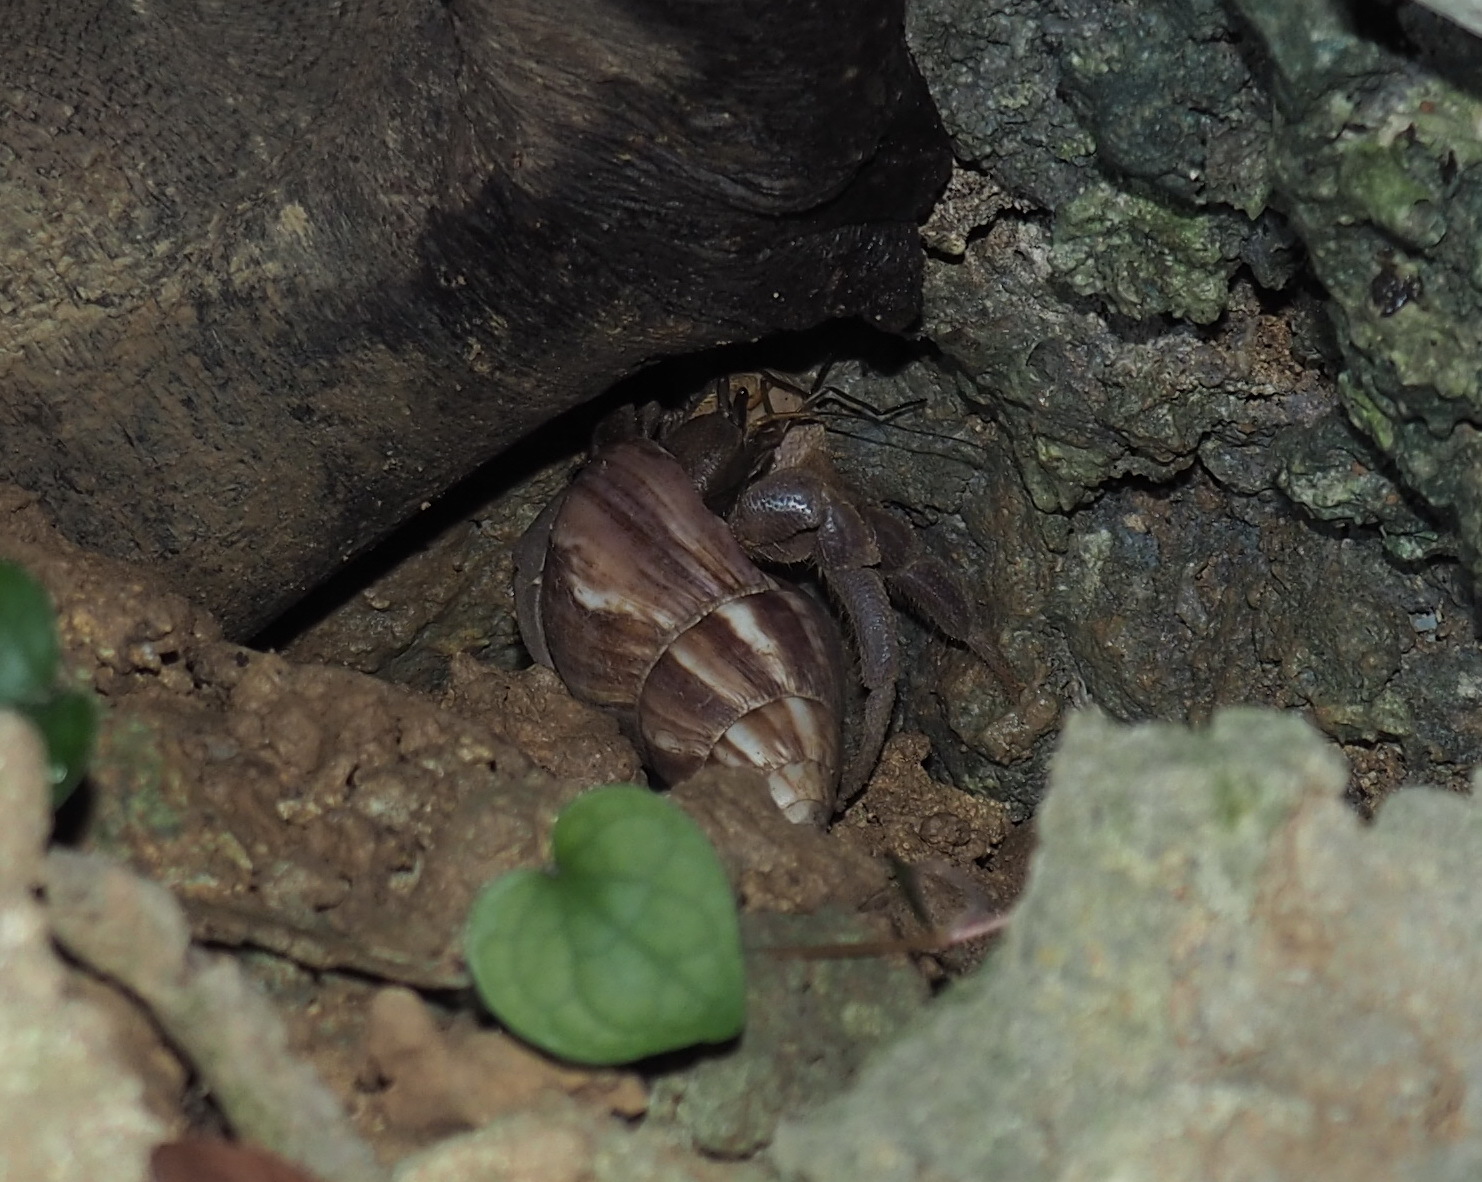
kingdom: Animalia
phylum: Arthropoda
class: Malacostraca
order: Decapoda
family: Coenobitidae
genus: Coenobita
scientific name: Coenobita brevimanus
